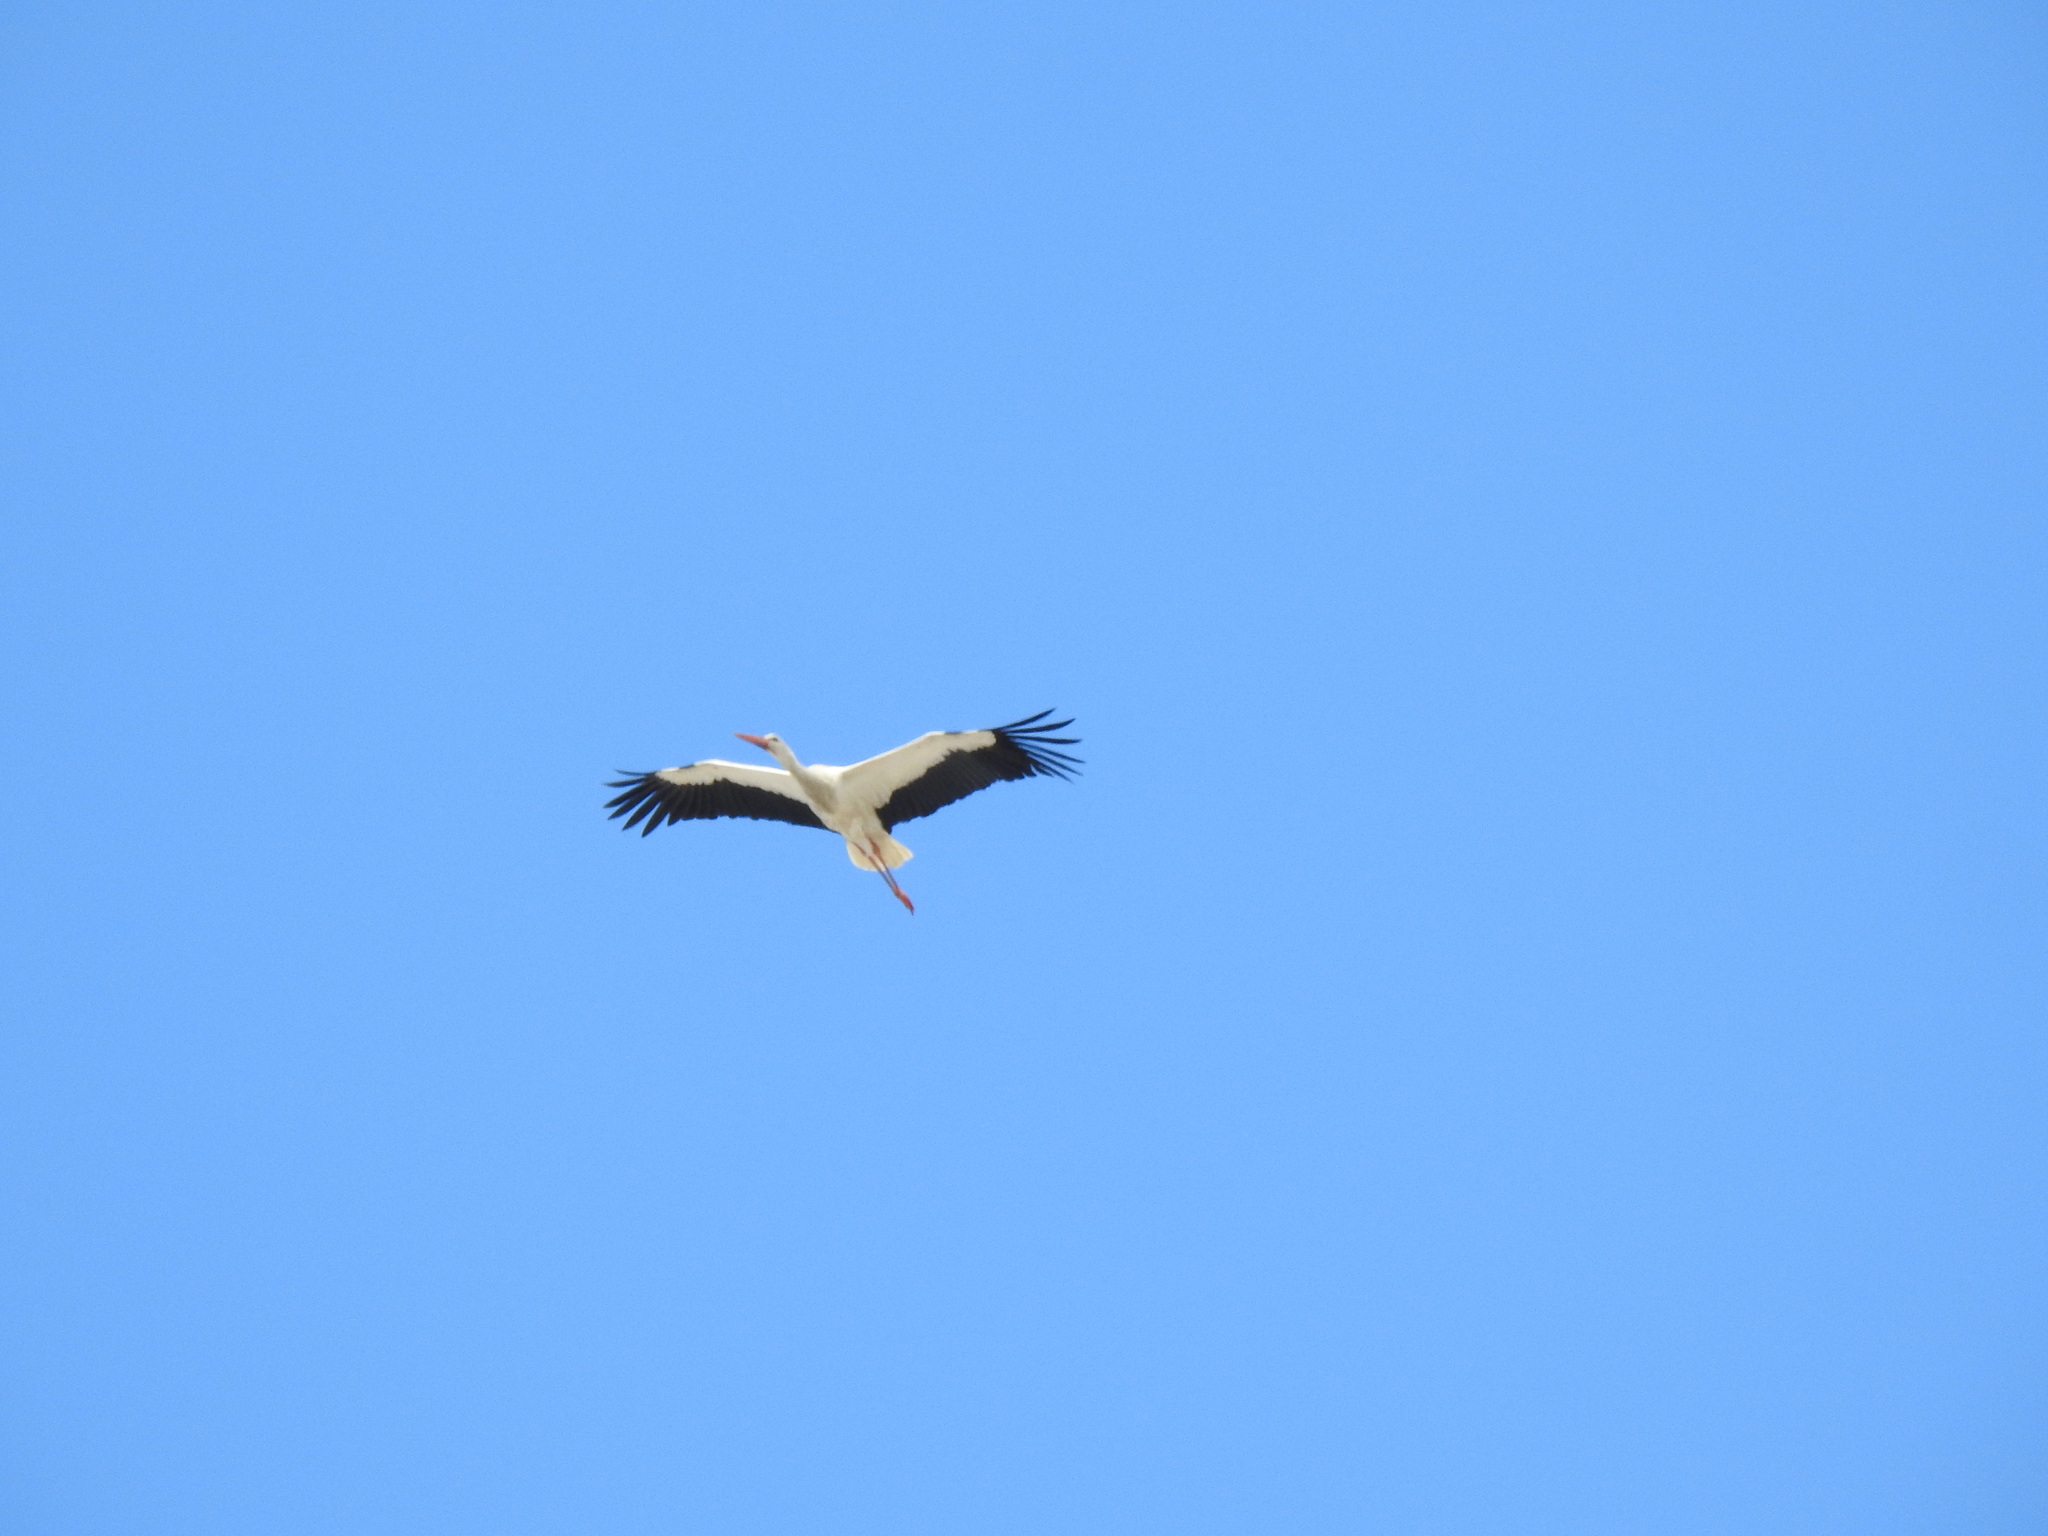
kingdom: Animalia
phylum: Chordata
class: Aves
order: Ciconiiformes
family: Ciconiidae
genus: Ciconia
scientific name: Ciconia ciconia
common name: White stork
